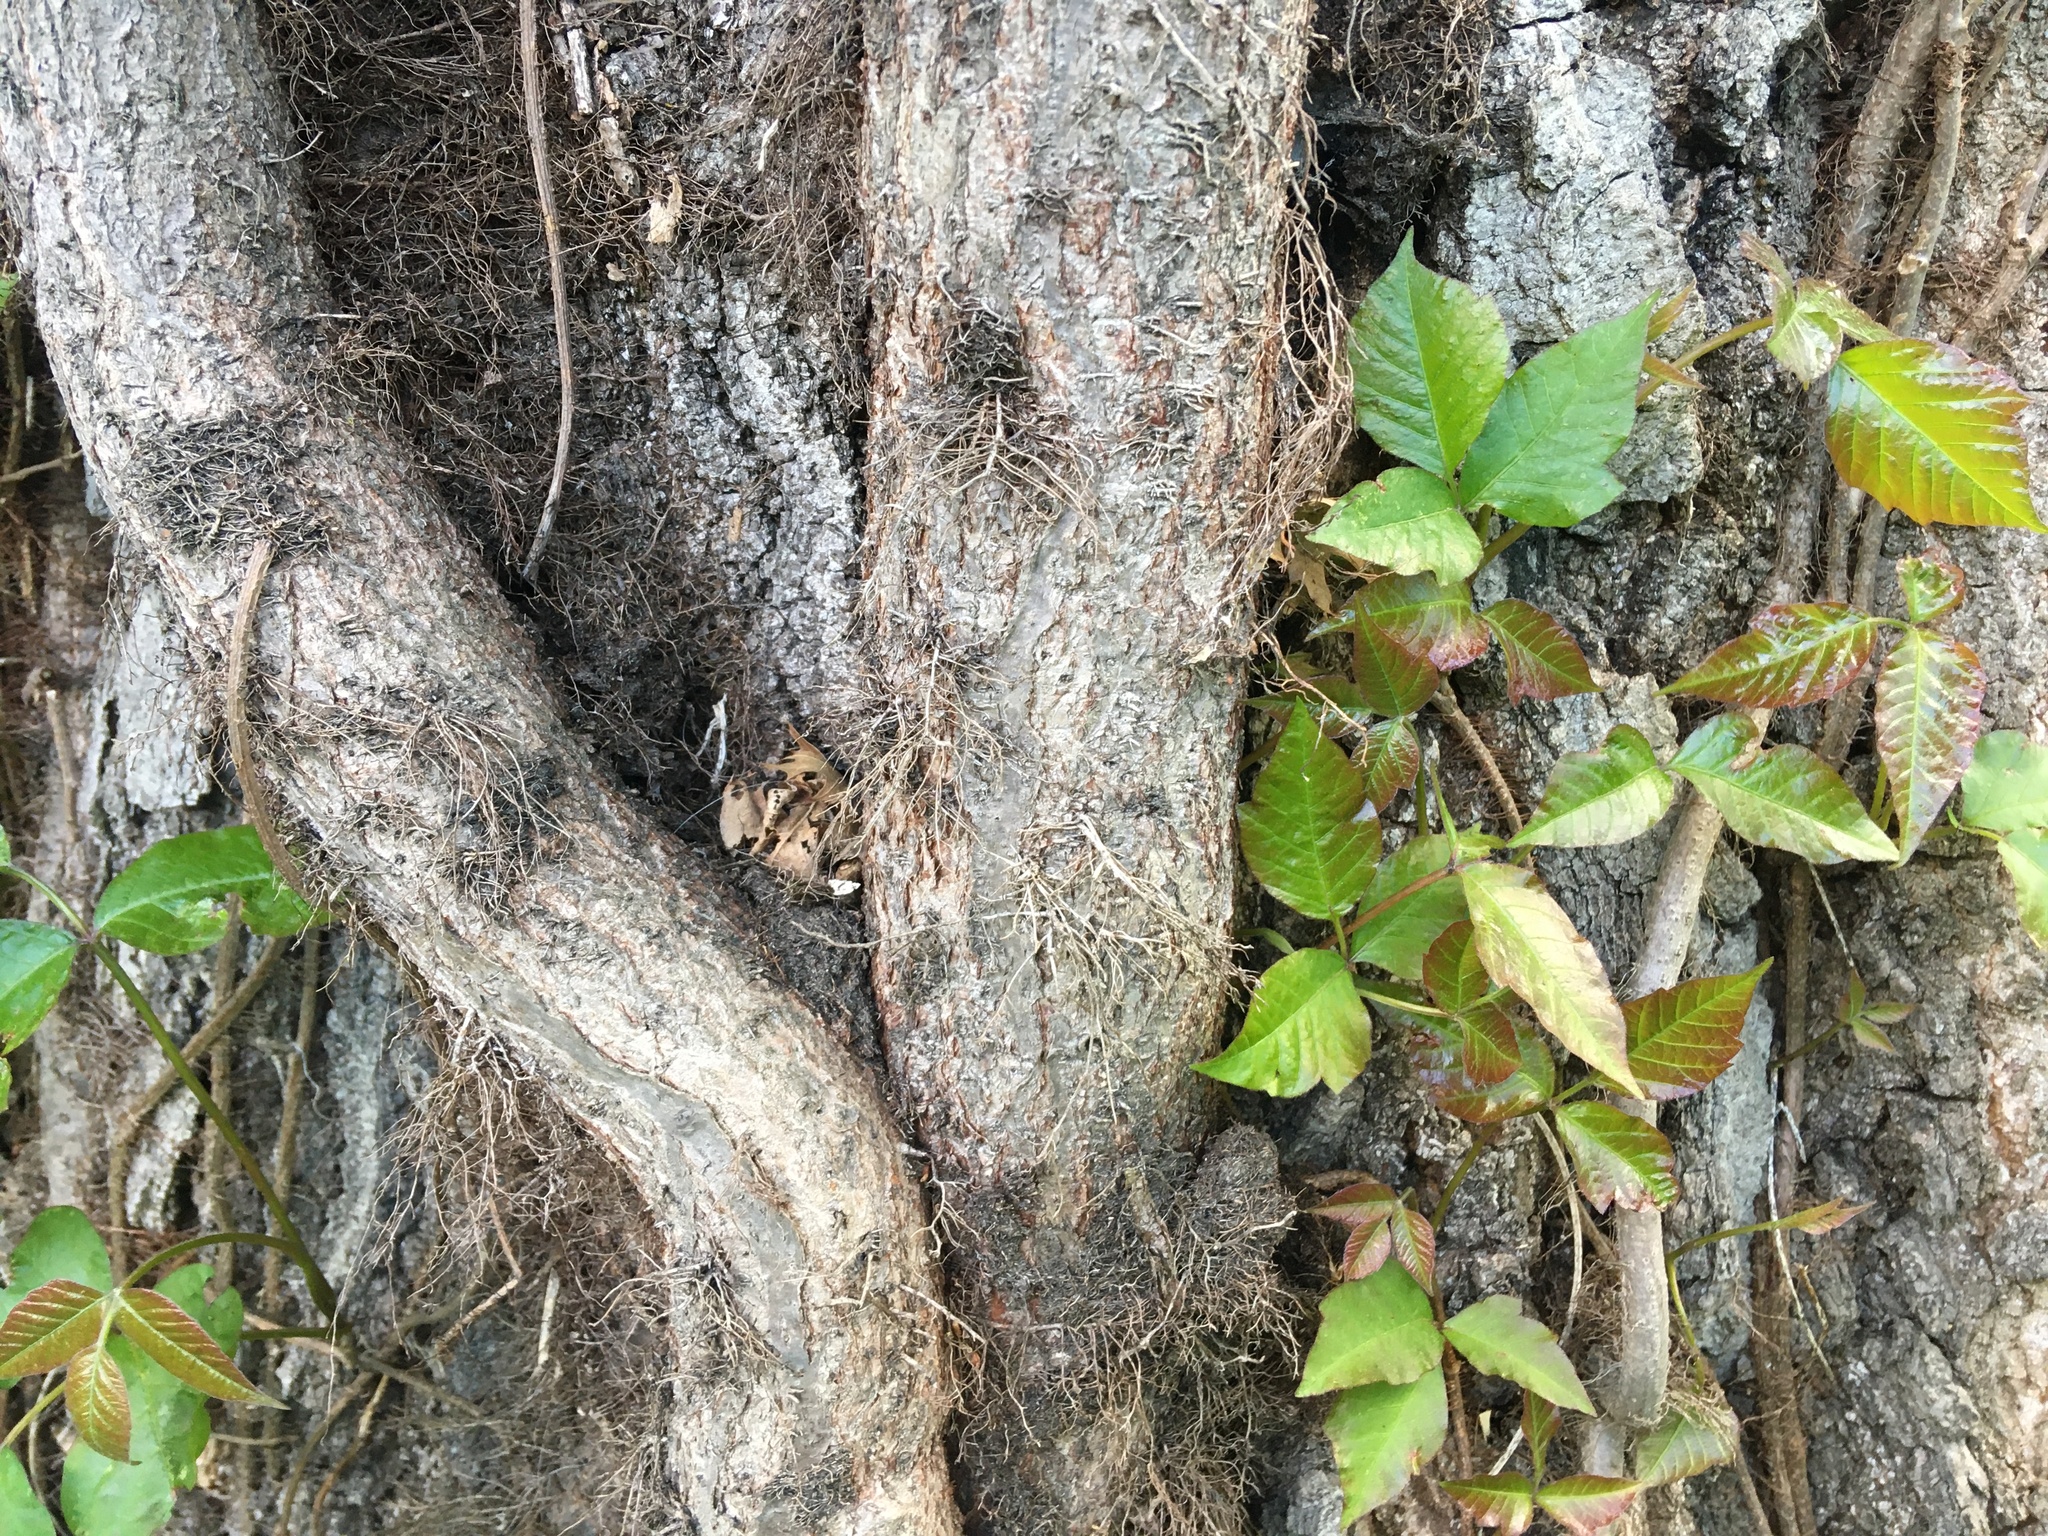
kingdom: Plantae
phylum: Tracheophyta
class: Magnoliopsida
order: Sapindales
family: Anacardiaceae
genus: Toxicodendron
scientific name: Toxicodendron radicans
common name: Poison ivy
